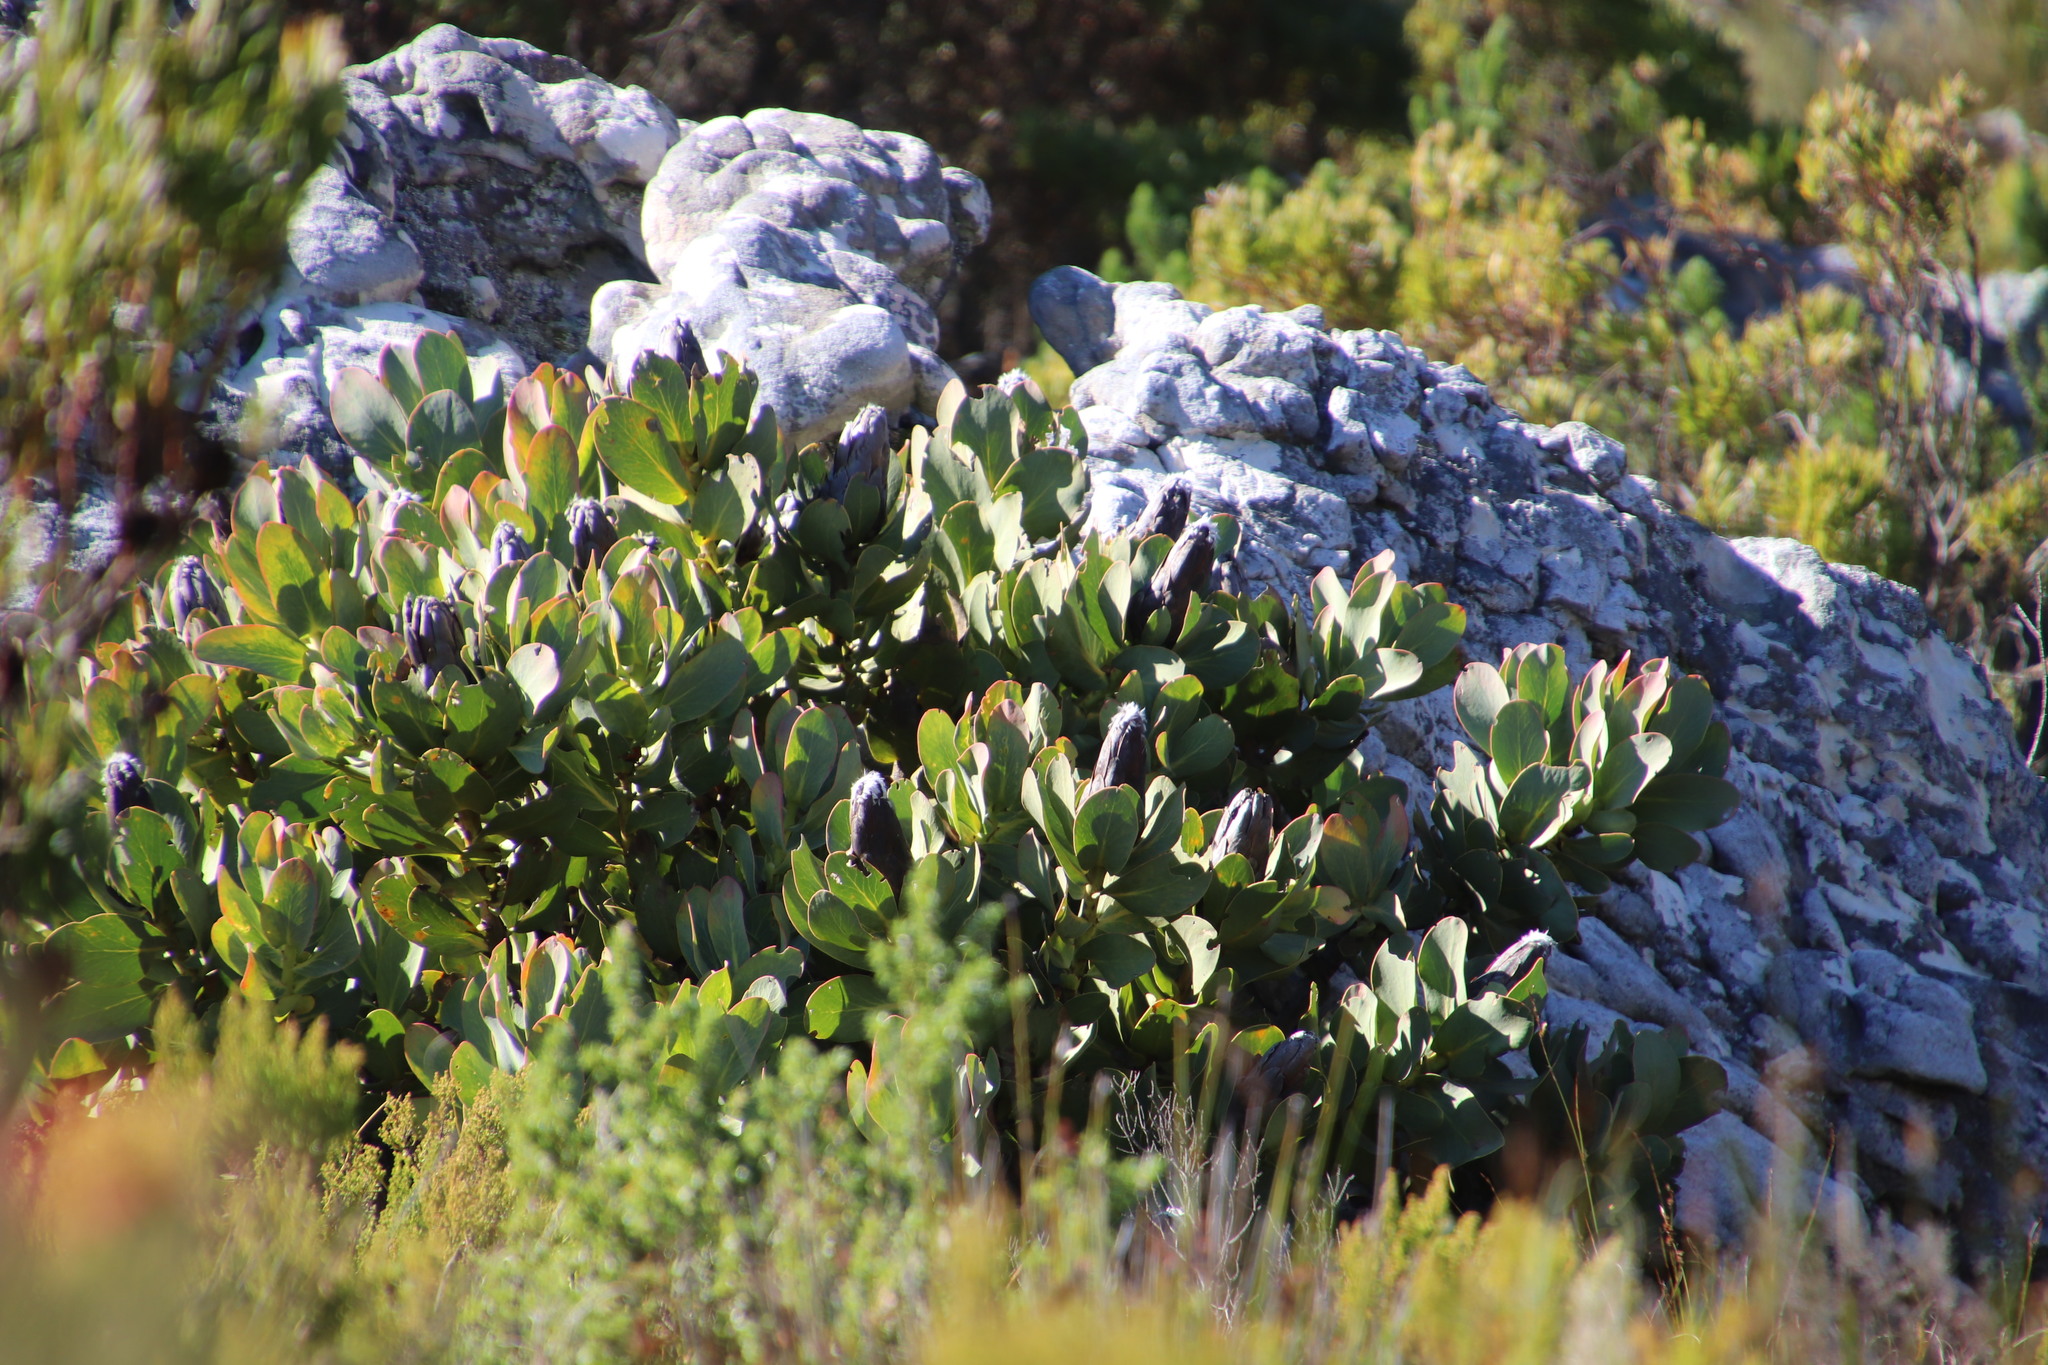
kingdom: Plantae
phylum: Tracheophyta
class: Magnoliopsida
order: Proteales
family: Proteaceae
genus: Protea
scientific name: Protea grandiceps
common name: Red sugarbush
